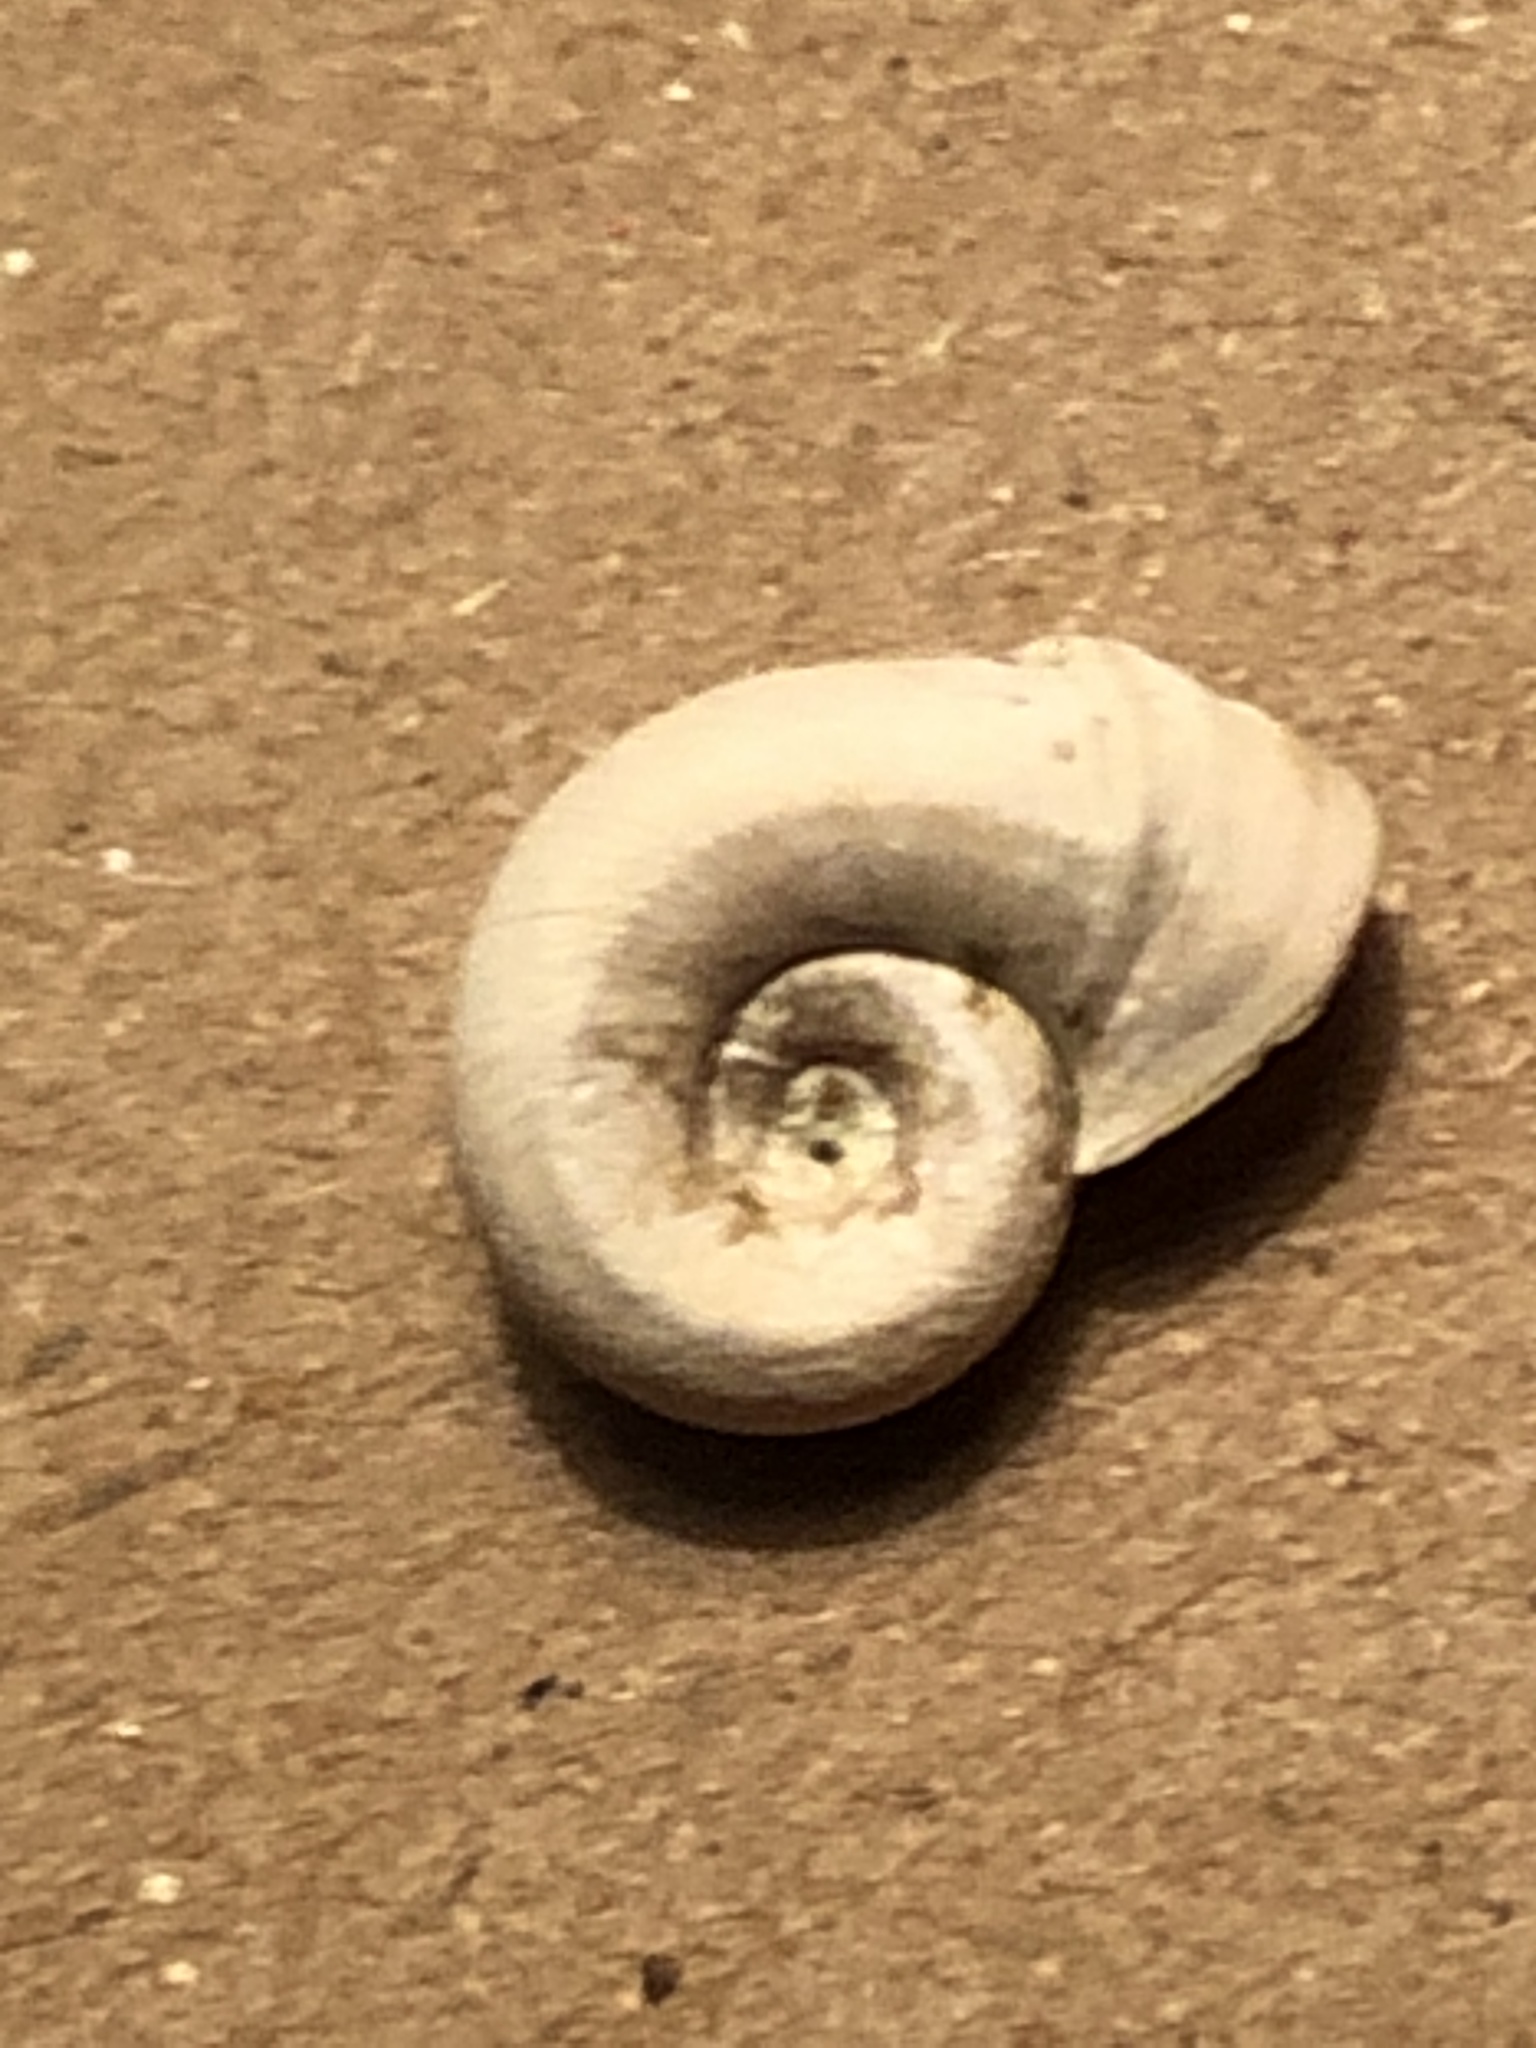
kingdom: Animalia
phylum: Mollusca
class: Gastropoda
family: Planorbidae
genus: Planorbella
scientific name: Planorbella campanulata
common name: Bellmouth ramshorn
